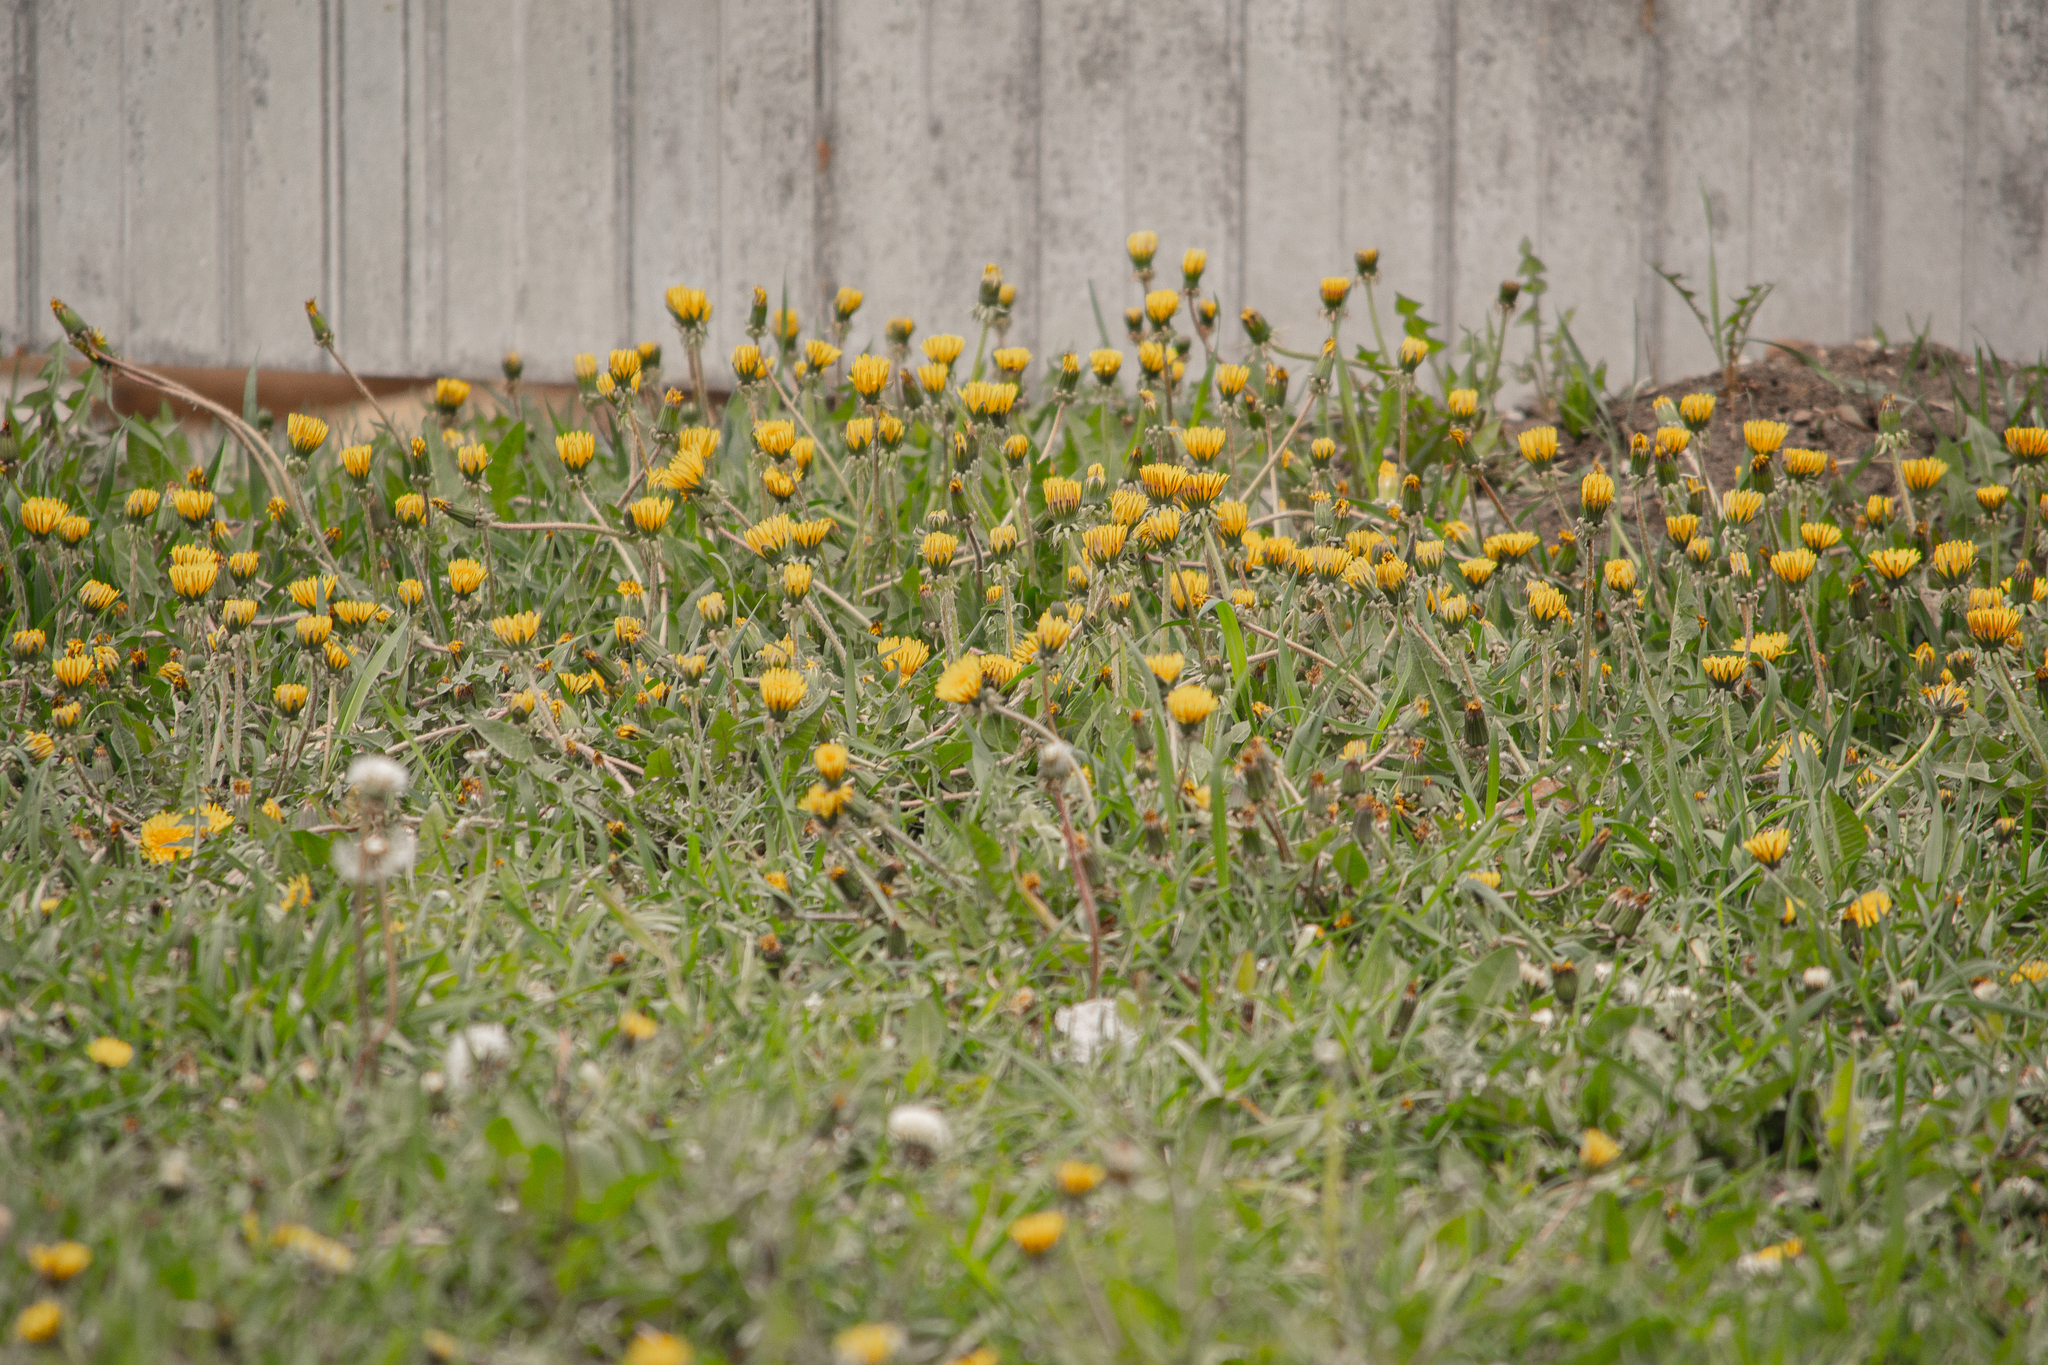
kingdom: Plantae
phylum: Tracheophyta
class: Magnoliopsida
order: Asterales
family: Asteraceae
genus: Taraxacum
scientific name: Taraxacum officinale
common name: Common dandelion
